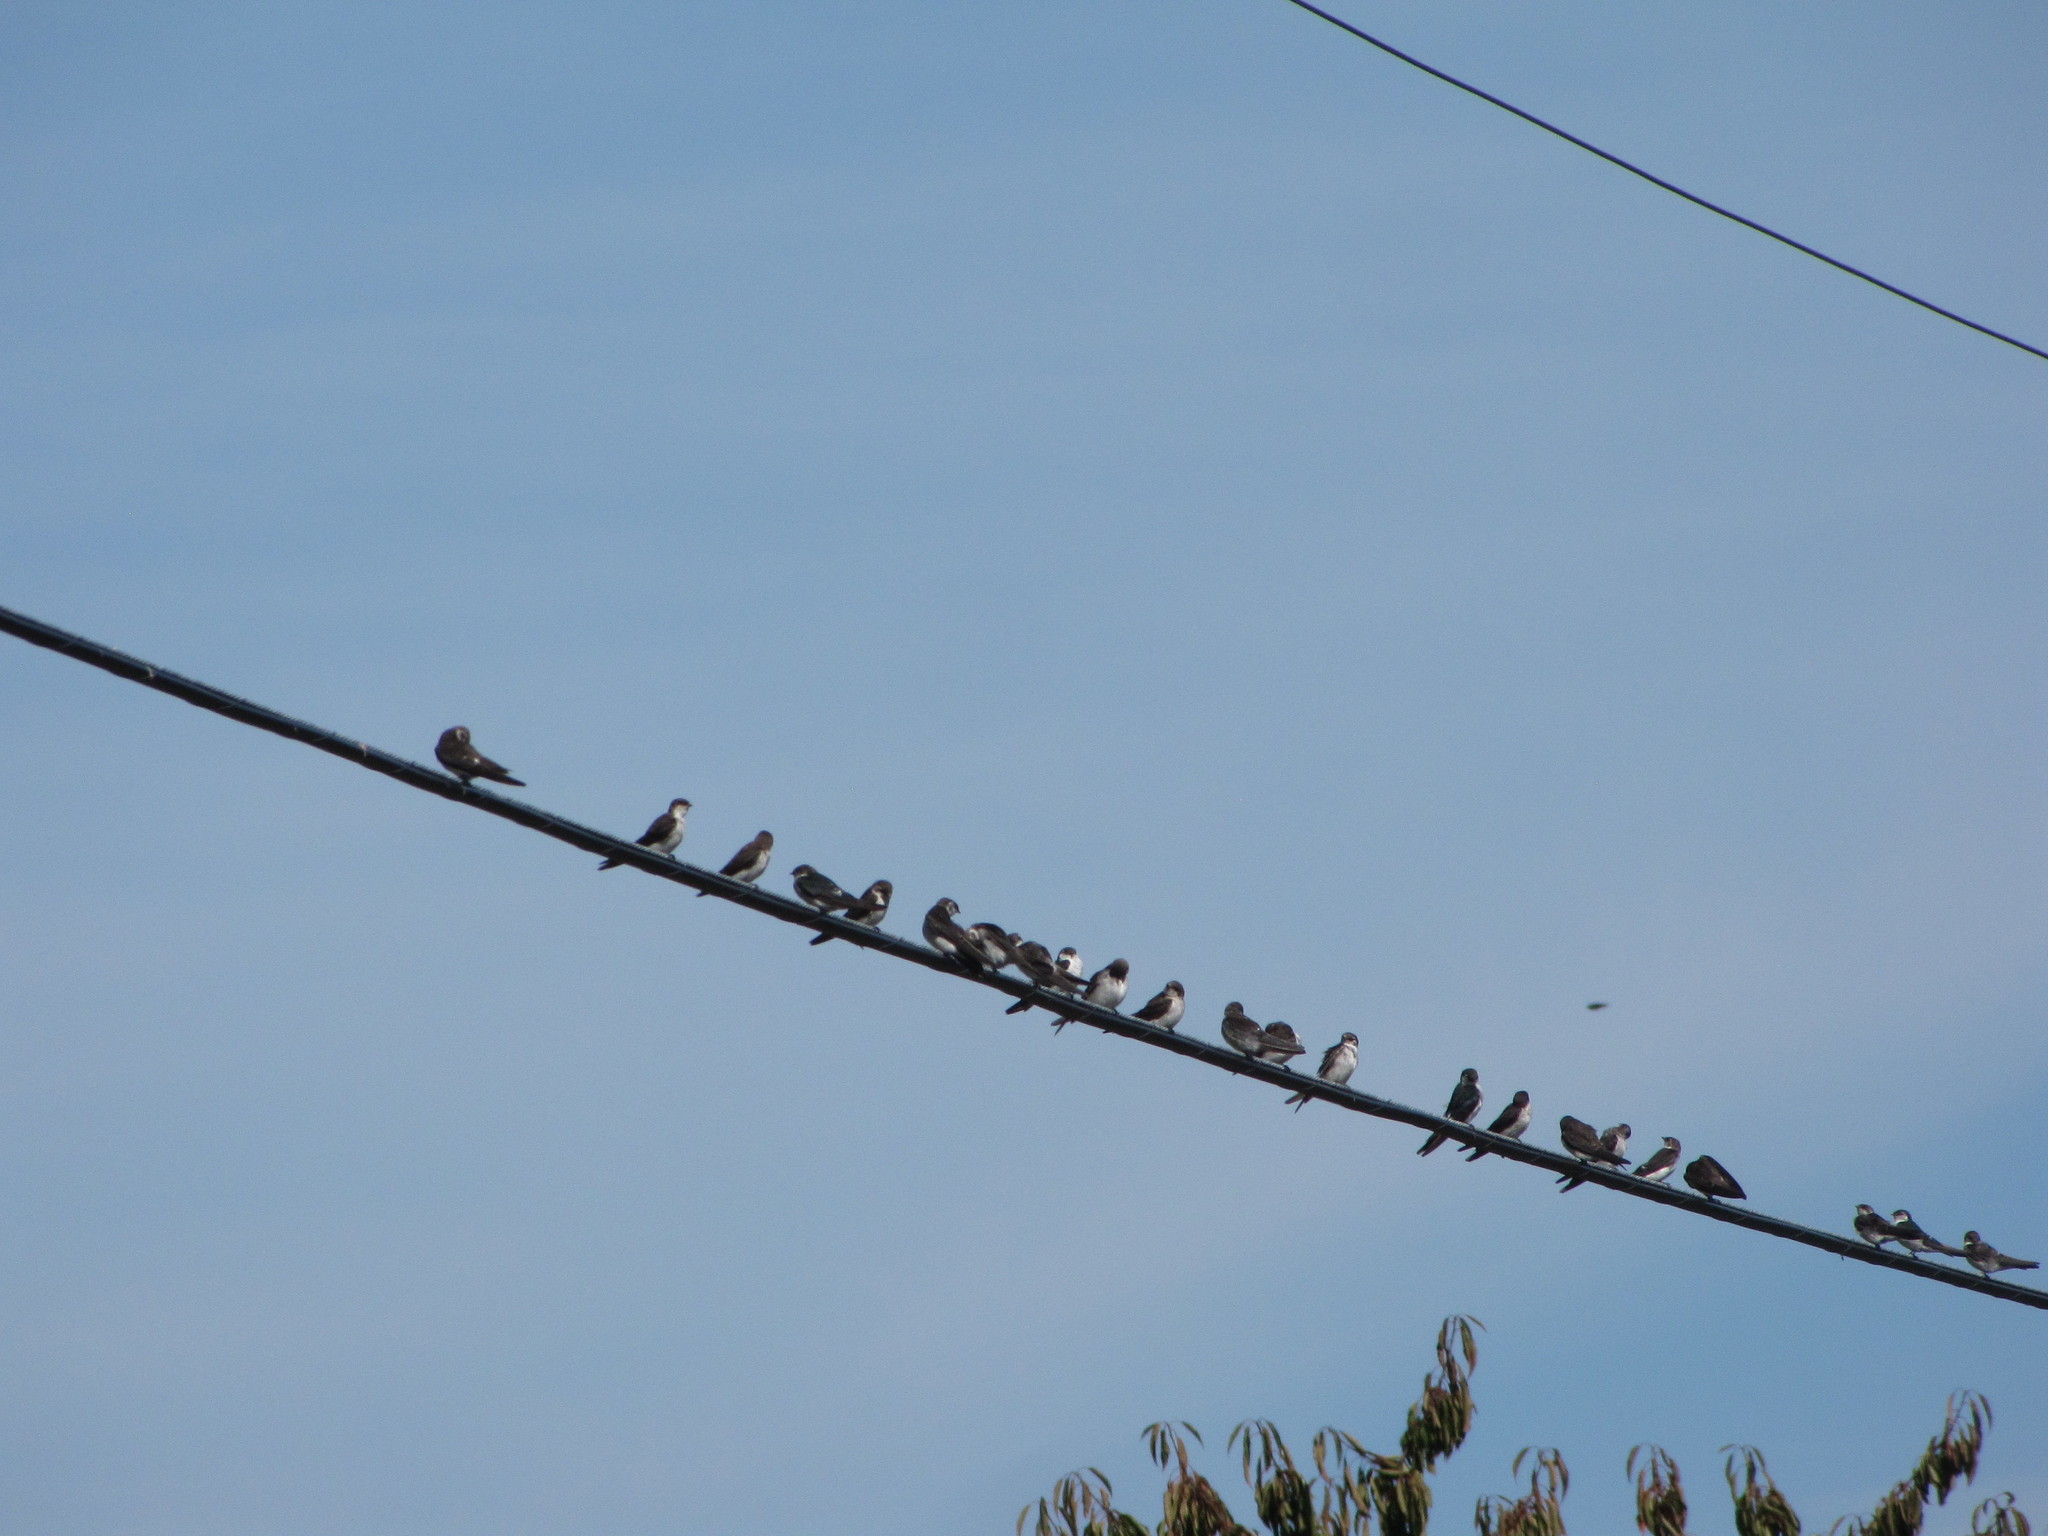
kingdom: Animalia
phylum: Chordata
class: Aves
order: Passeriformes
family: Hirundinidae
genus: Tachycineta
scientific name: Tachycineta thalassina
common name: Violet-green swallow
